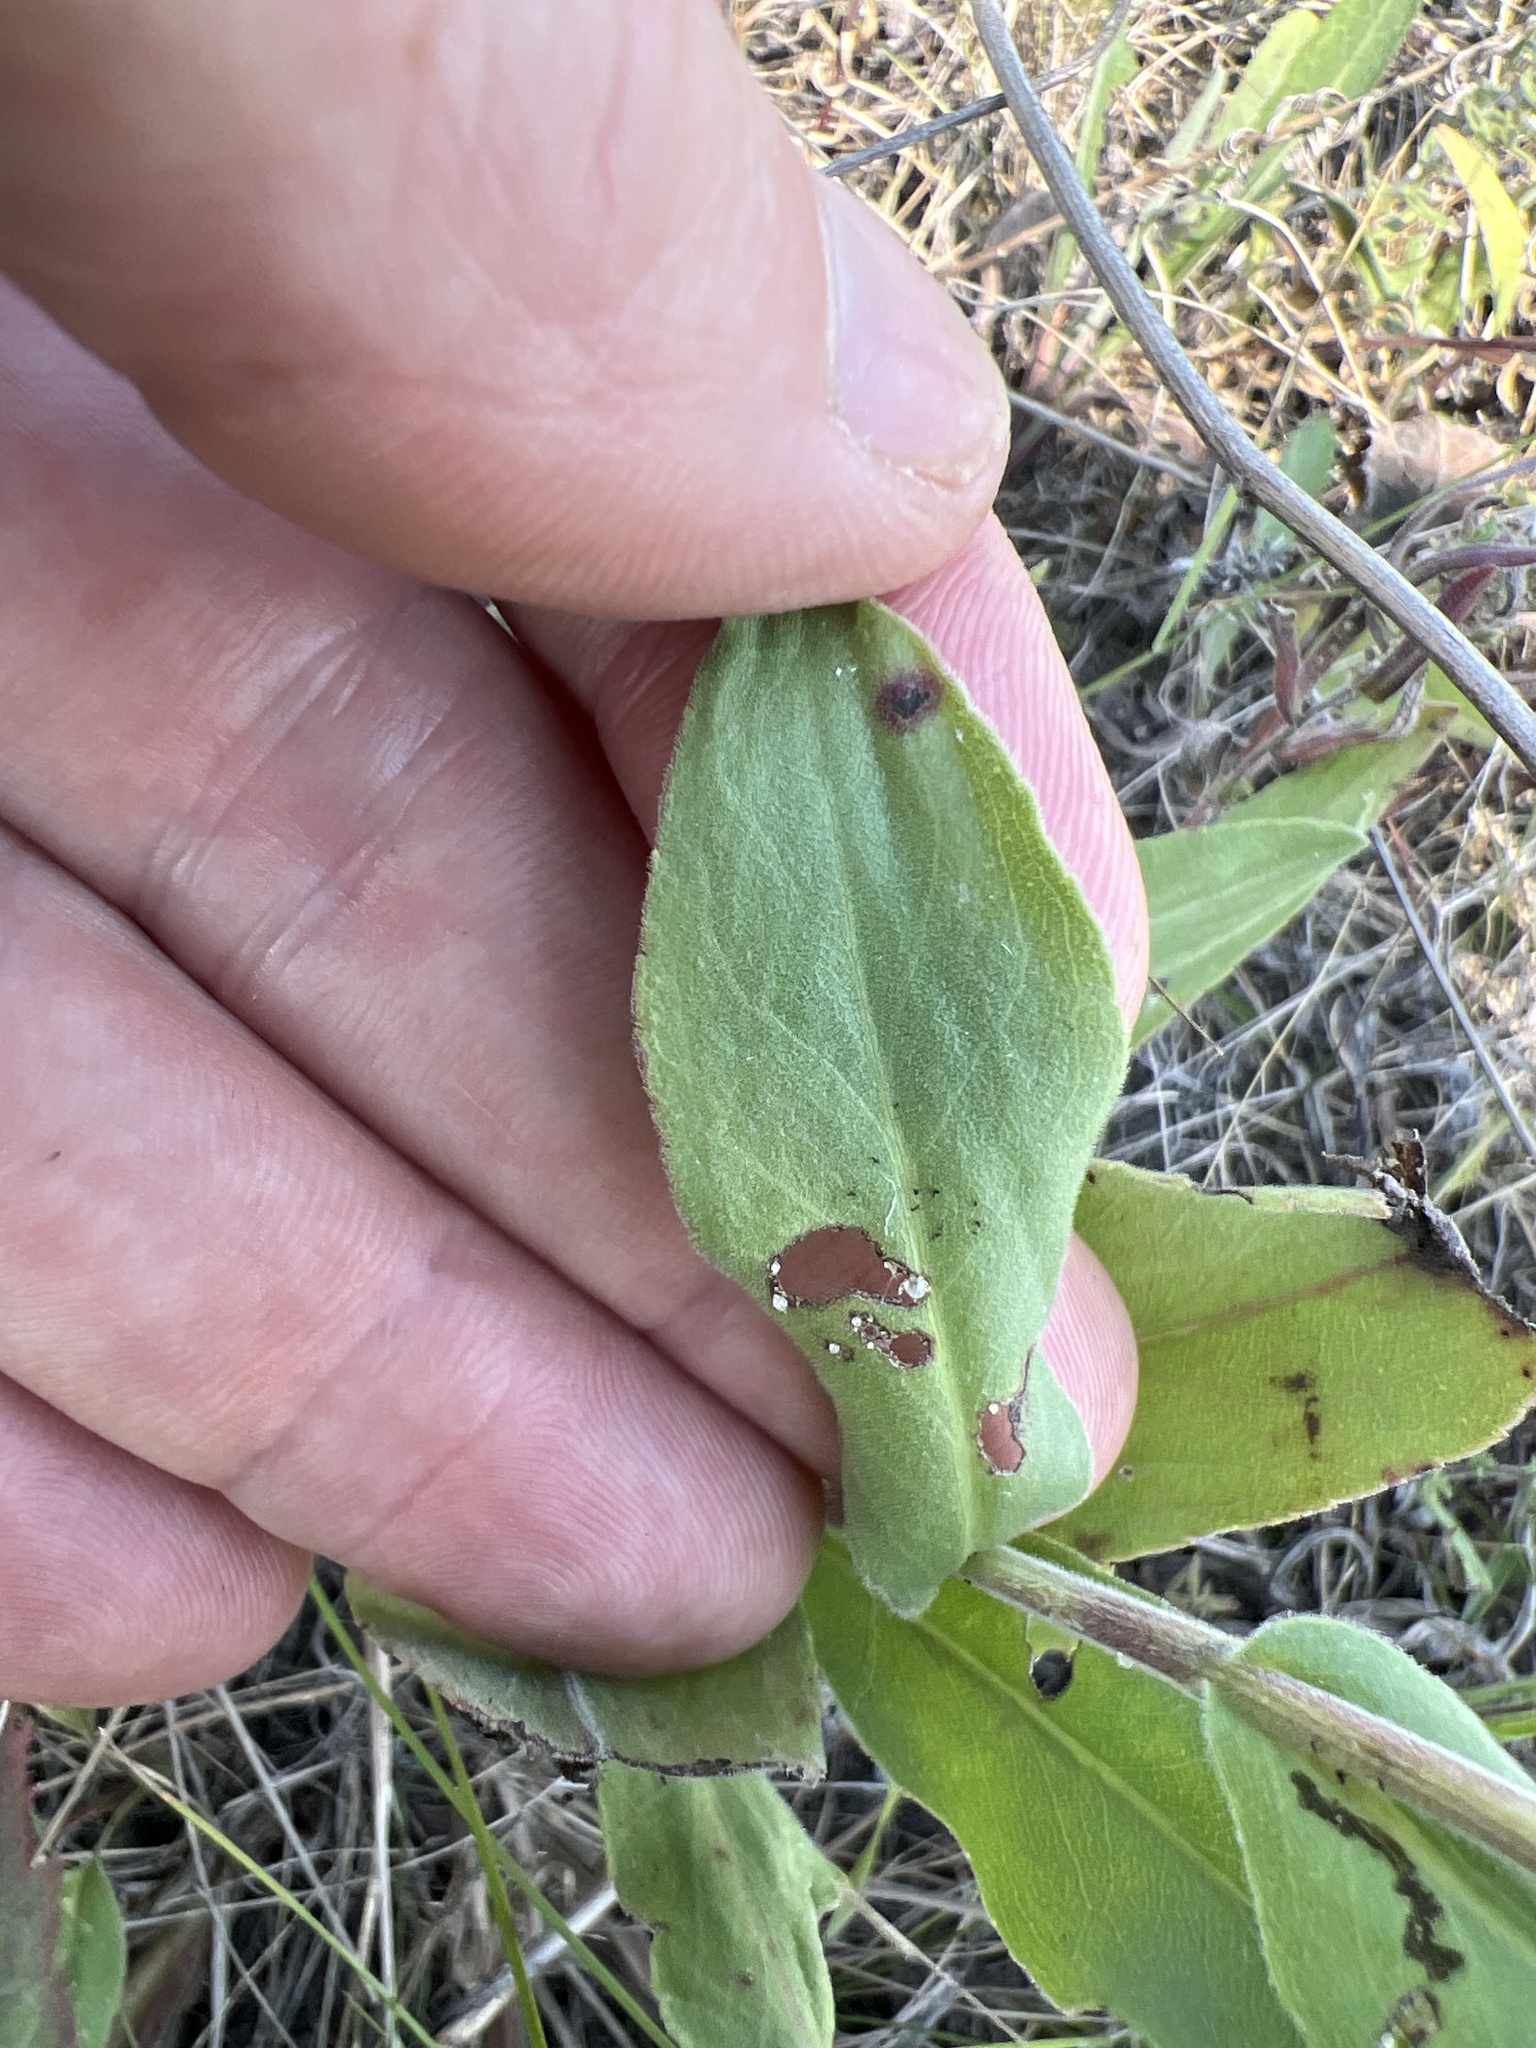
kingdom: Plantae
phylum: Tracheophyta
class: Magnoliopsida
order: Asterales
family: Asteraceae
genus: Solidago
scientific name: Solidago rigida
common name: Rigid goldenrod
